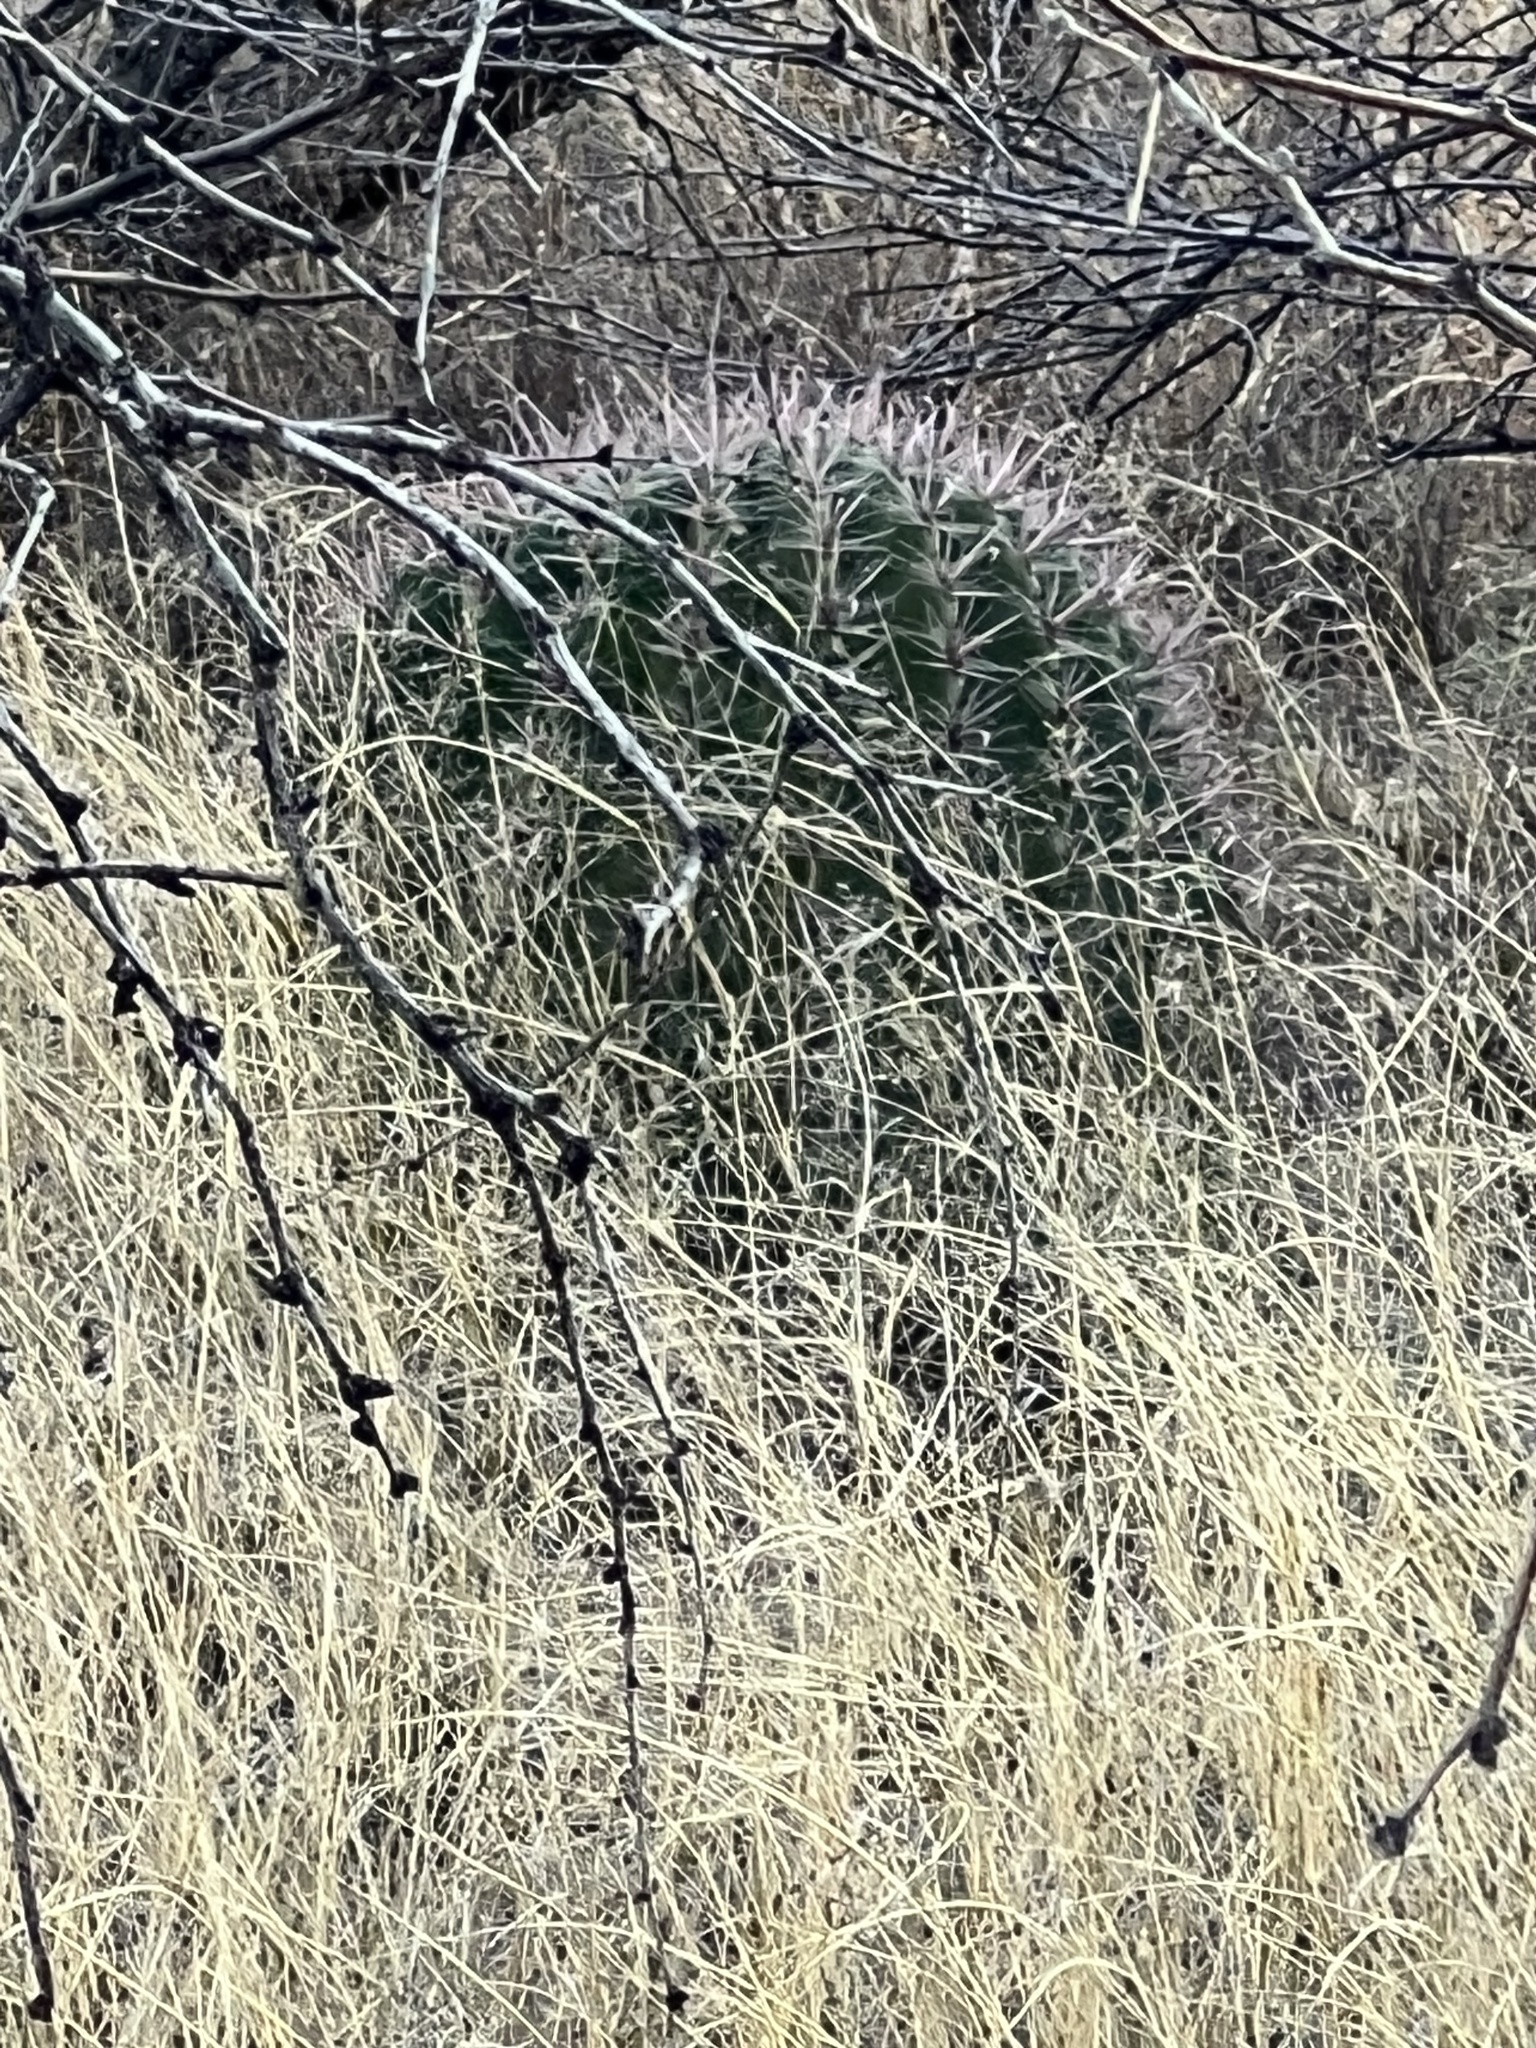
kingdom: Plantae
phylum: Tracheophyta
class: Magnoliopsida
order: Caryophyllales
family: Cactaceae
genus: Ferocactus
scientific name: Ferocactus wislizeni
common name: Candy barrel cactus
